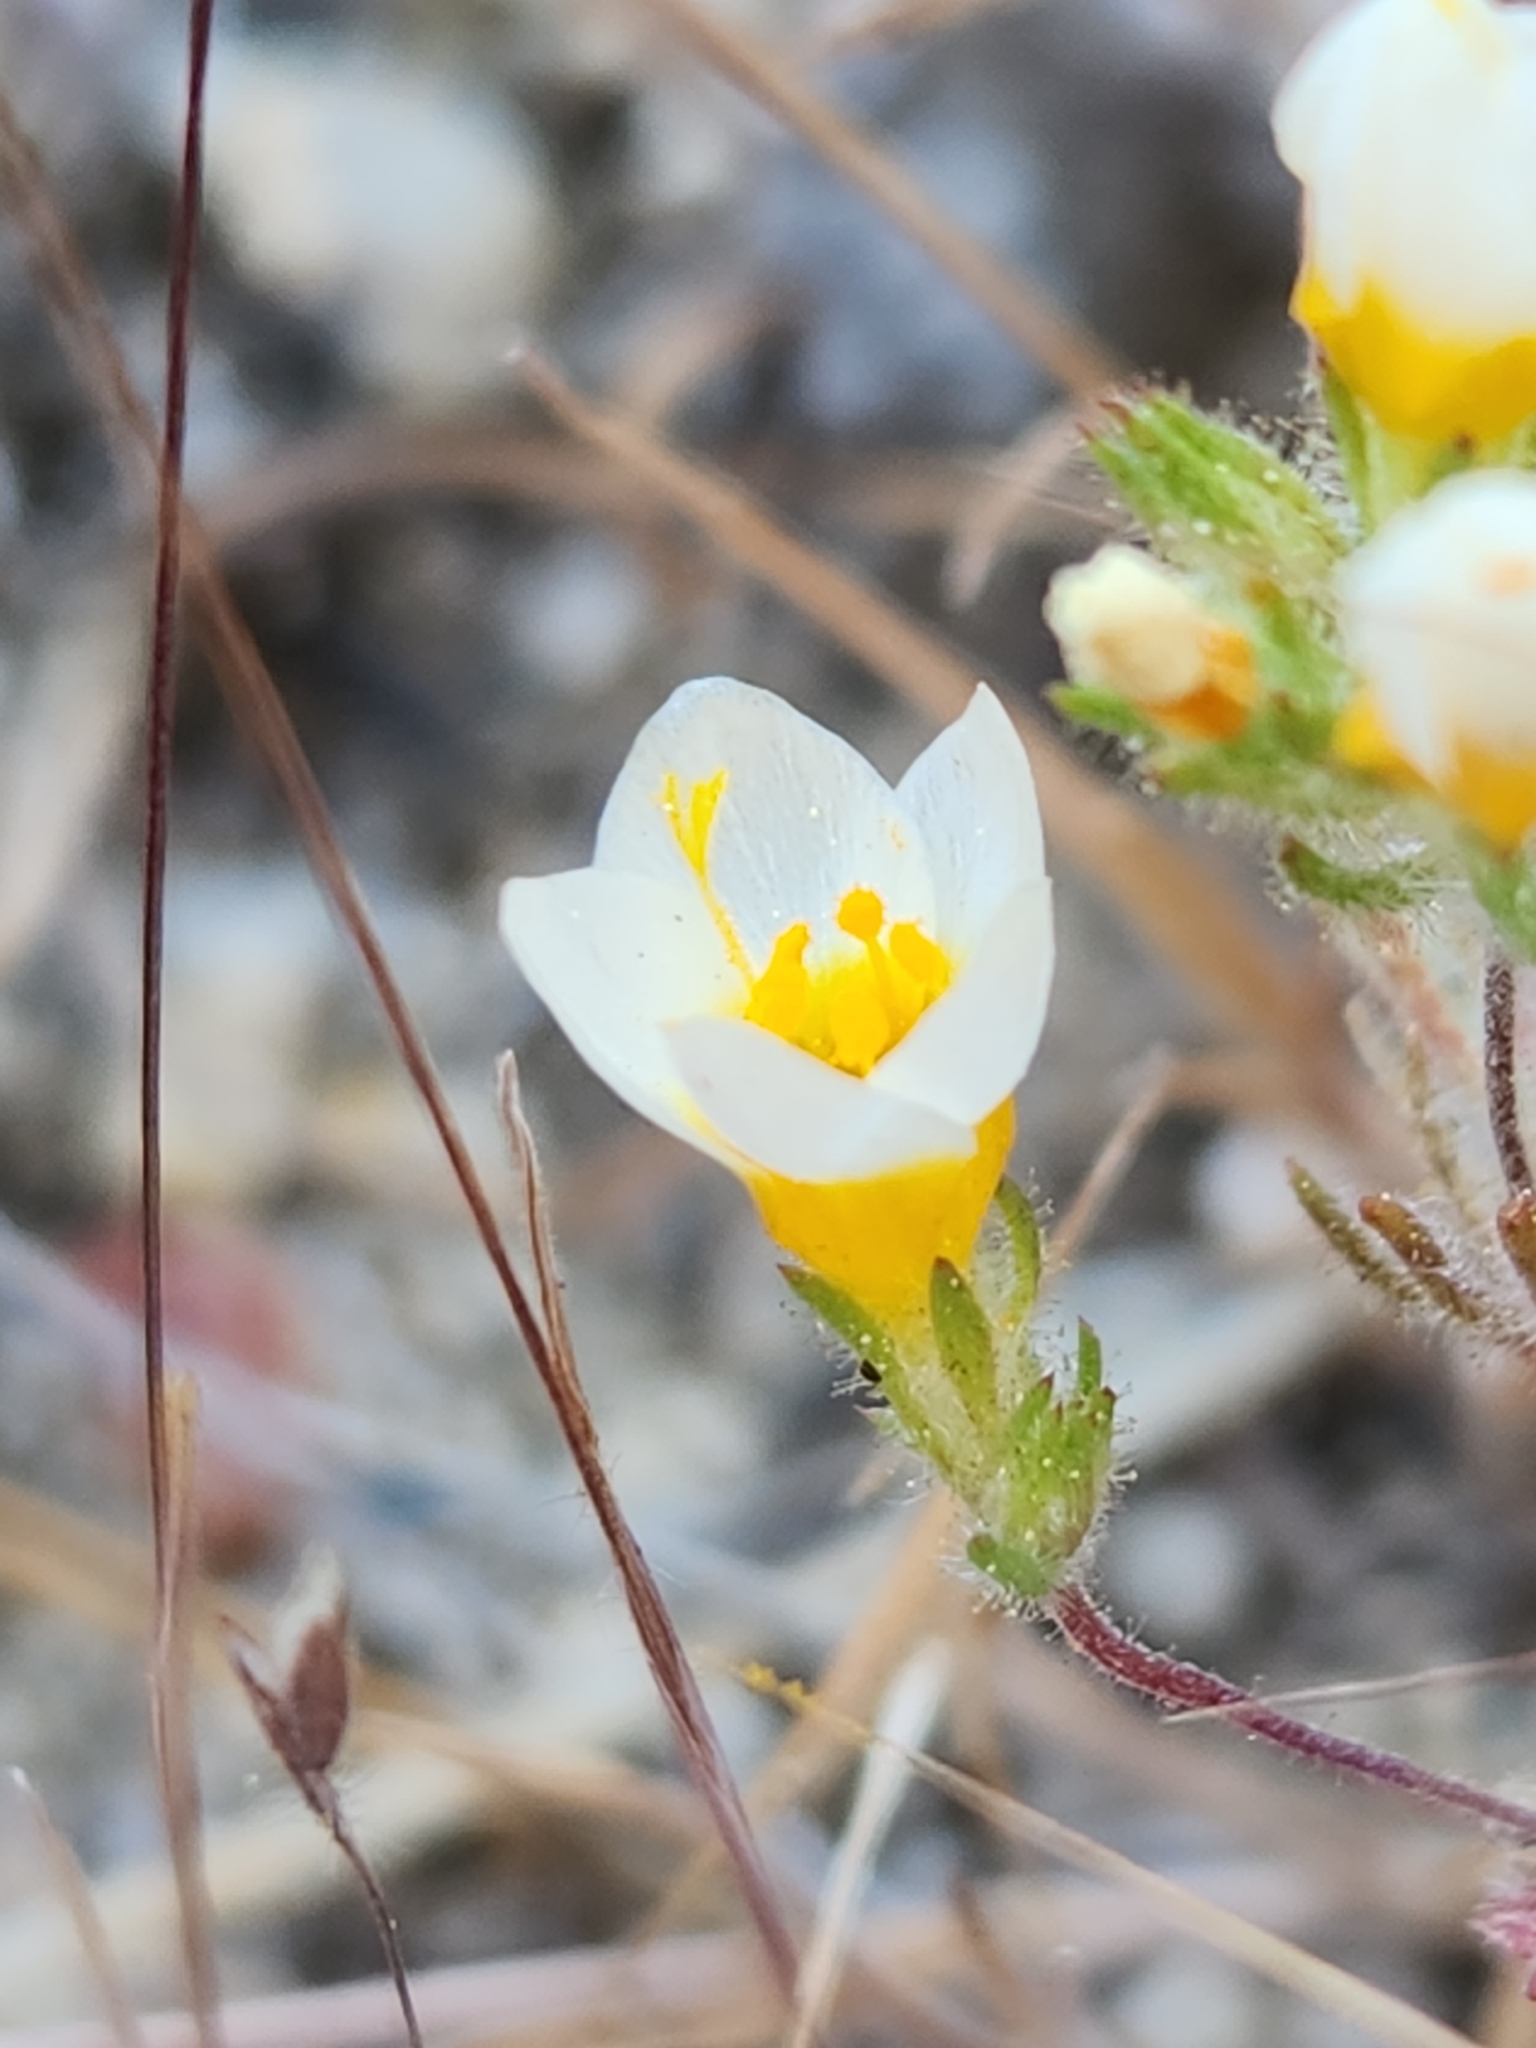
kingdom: Plantae
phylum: Tracheophyta
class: Magnoliopsida
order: Ericales
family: Polemoniaceae
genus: Leptosiphon
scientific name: Leptosiphon lemmonii
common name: Lemmon's linanthus
